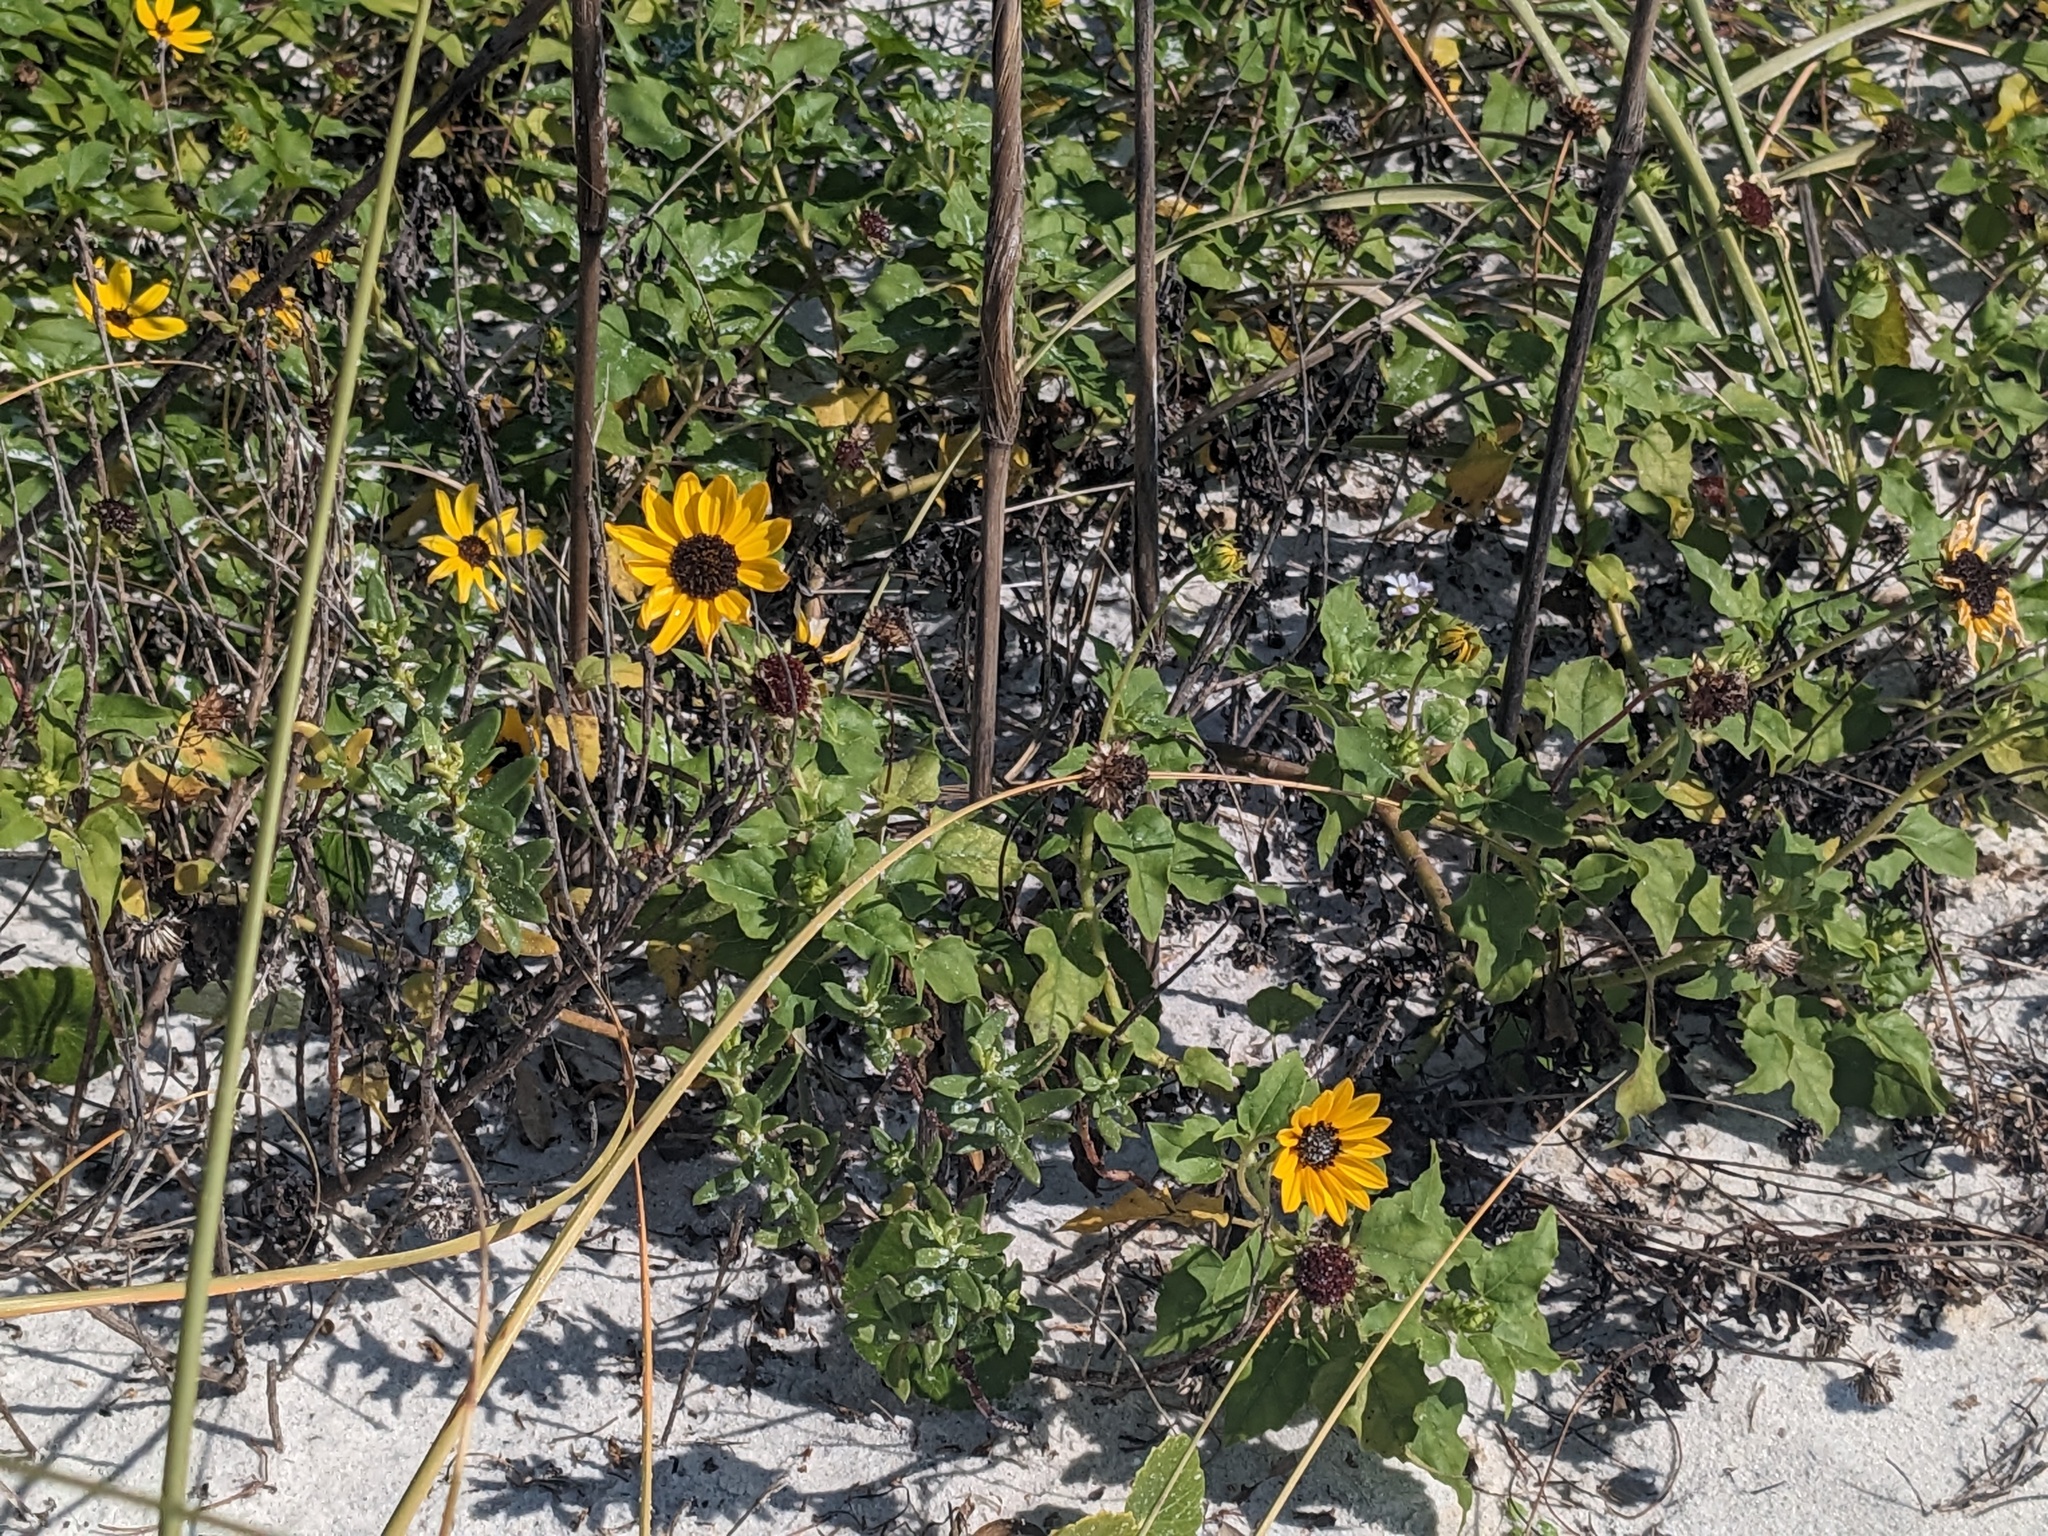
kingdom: Plantae
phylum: Tracheophyta
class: Magnoliopsida
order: Asterales
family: Asteraceae
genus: Helianthus
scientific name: Helianthus debilis
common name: Weak sunflower
